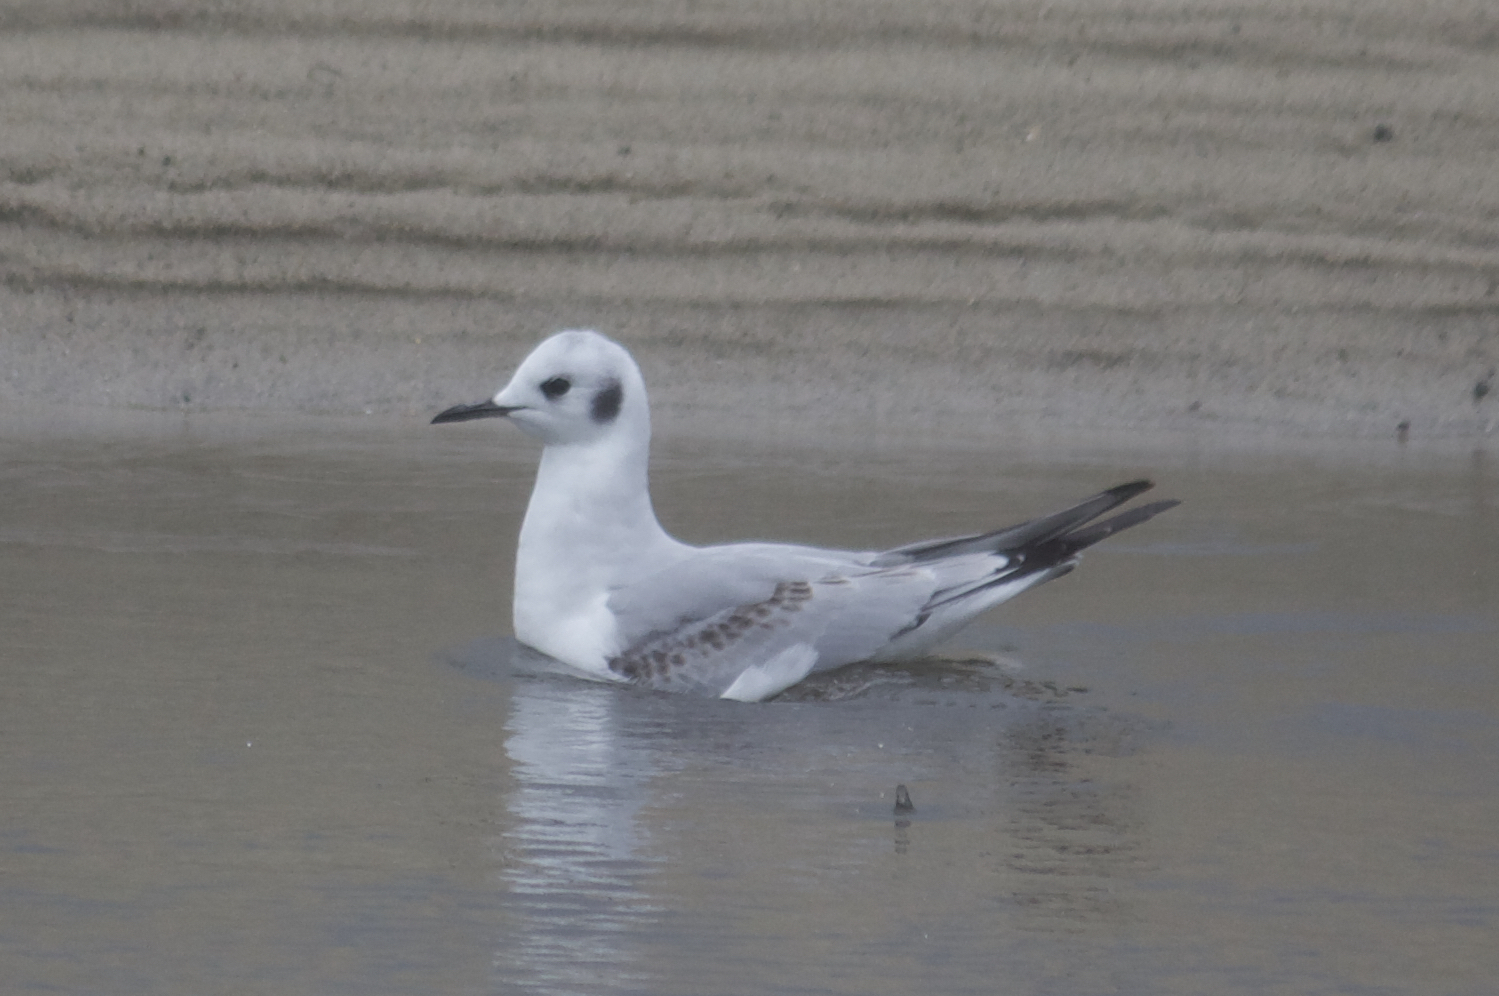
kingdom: Animalia
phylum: Chordata
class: Aves
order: Charadriiformes
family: Laridae
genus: Chroicocephalus
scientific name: Chroicocephalus philadelphia
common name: Bonaparte's gull
